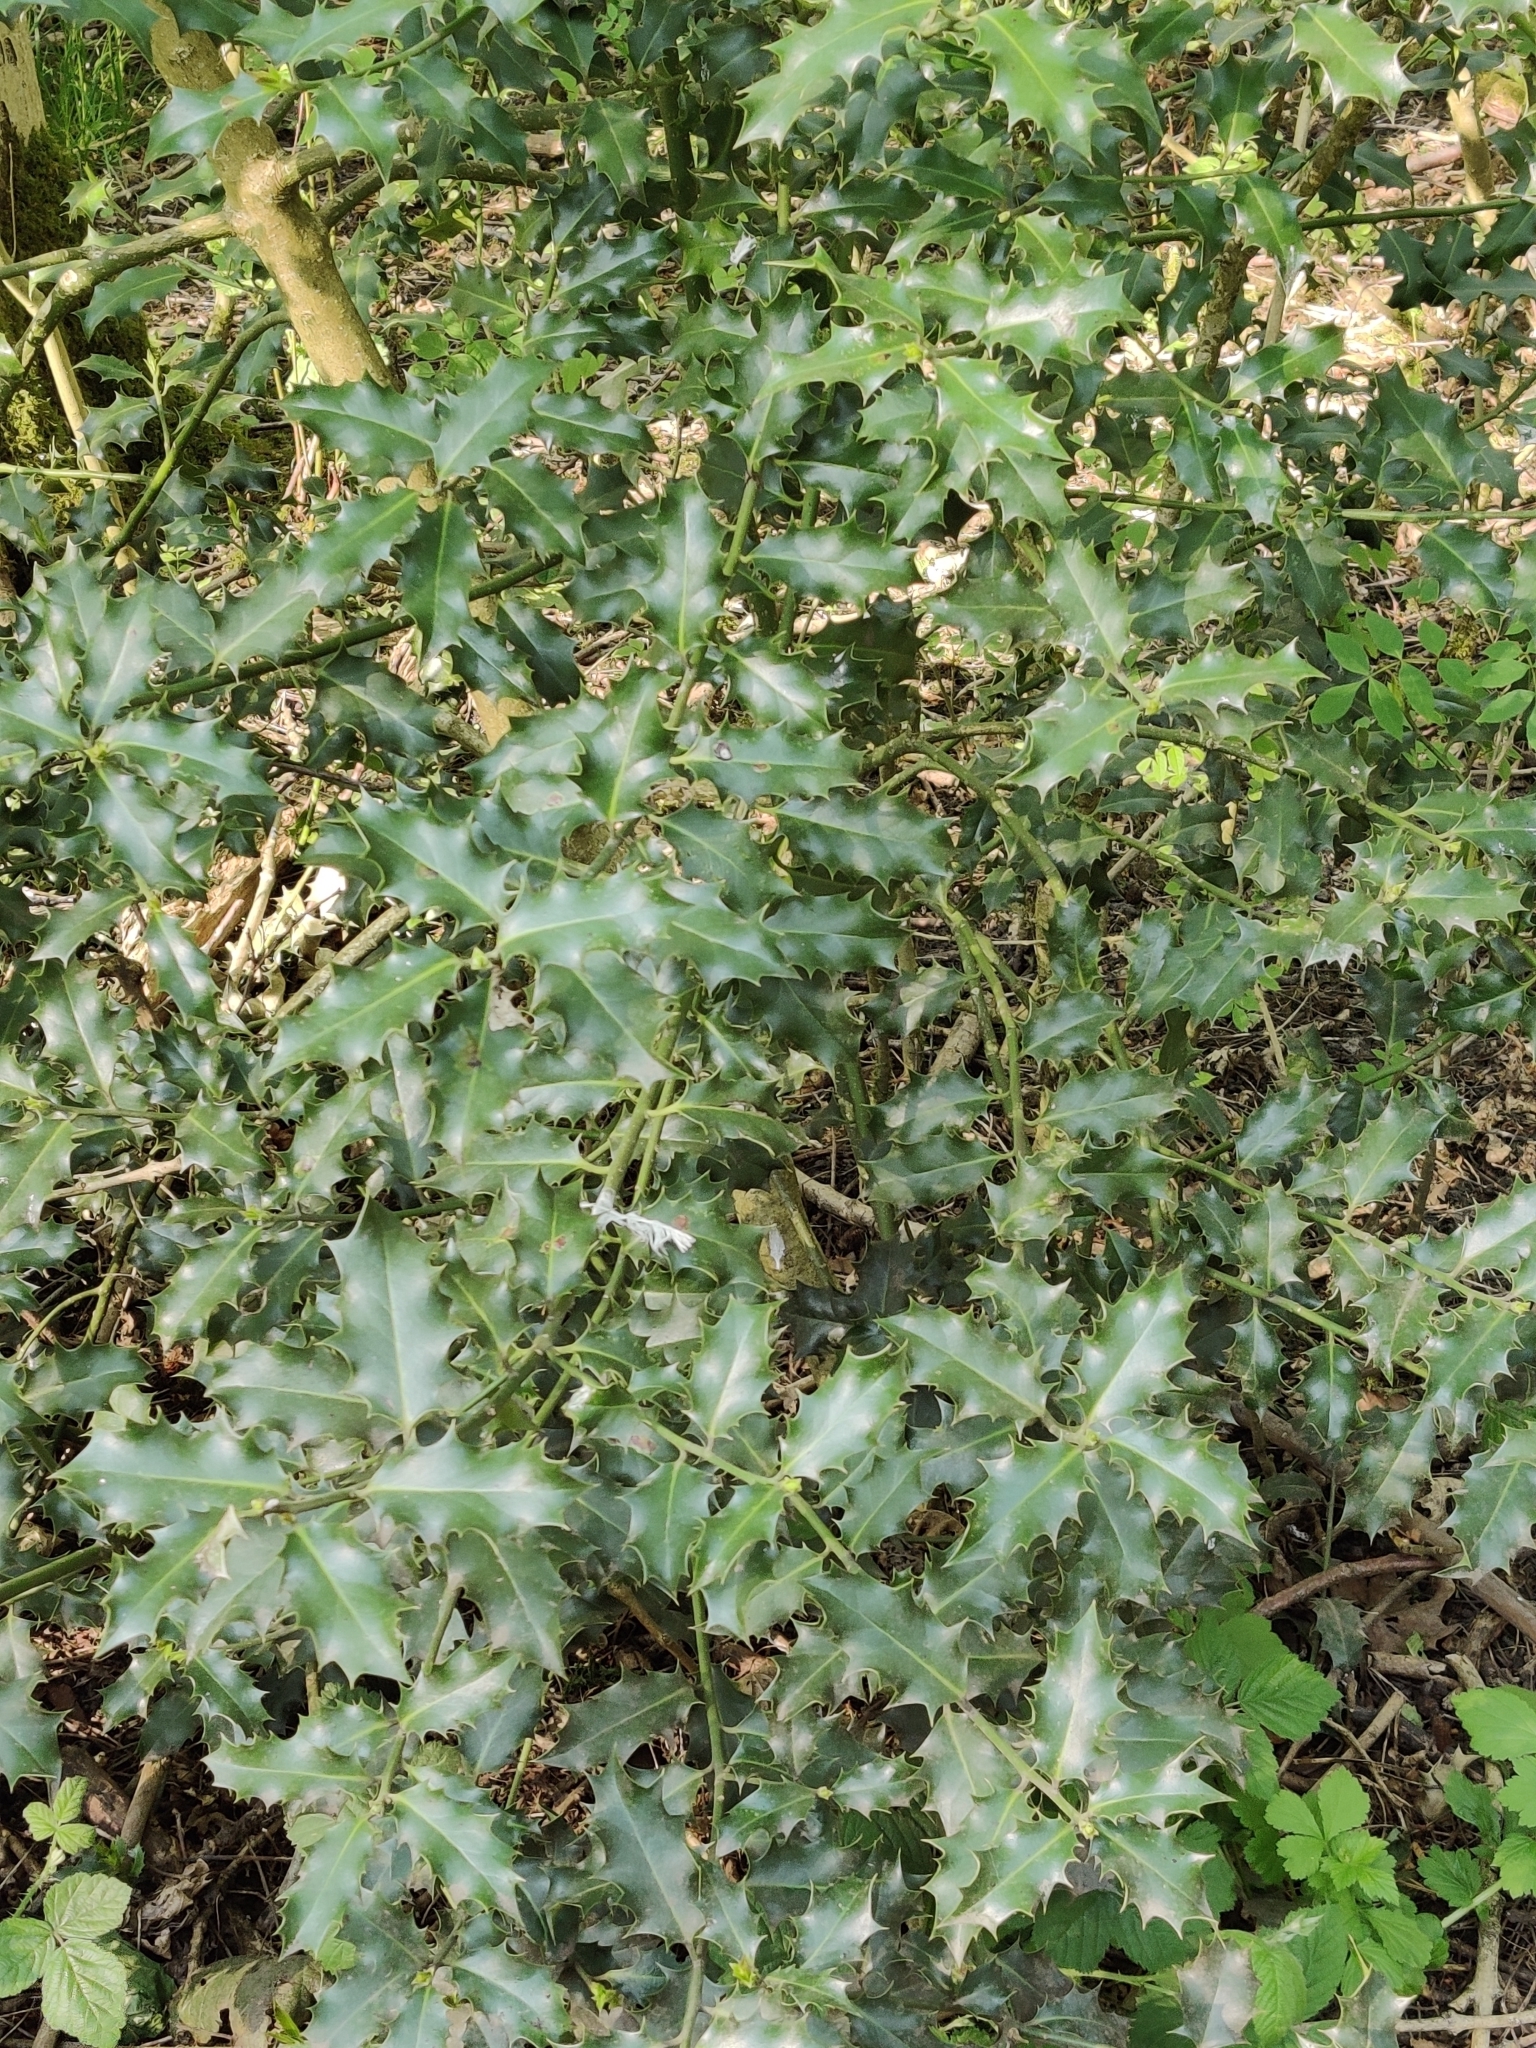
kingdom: Plantae
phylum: Tracheophyta
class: Magnoliopsida
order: Aquifoliales
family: Aquifoliaceae
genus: Ilex
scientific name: Ilex aquifolium
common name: English holly
